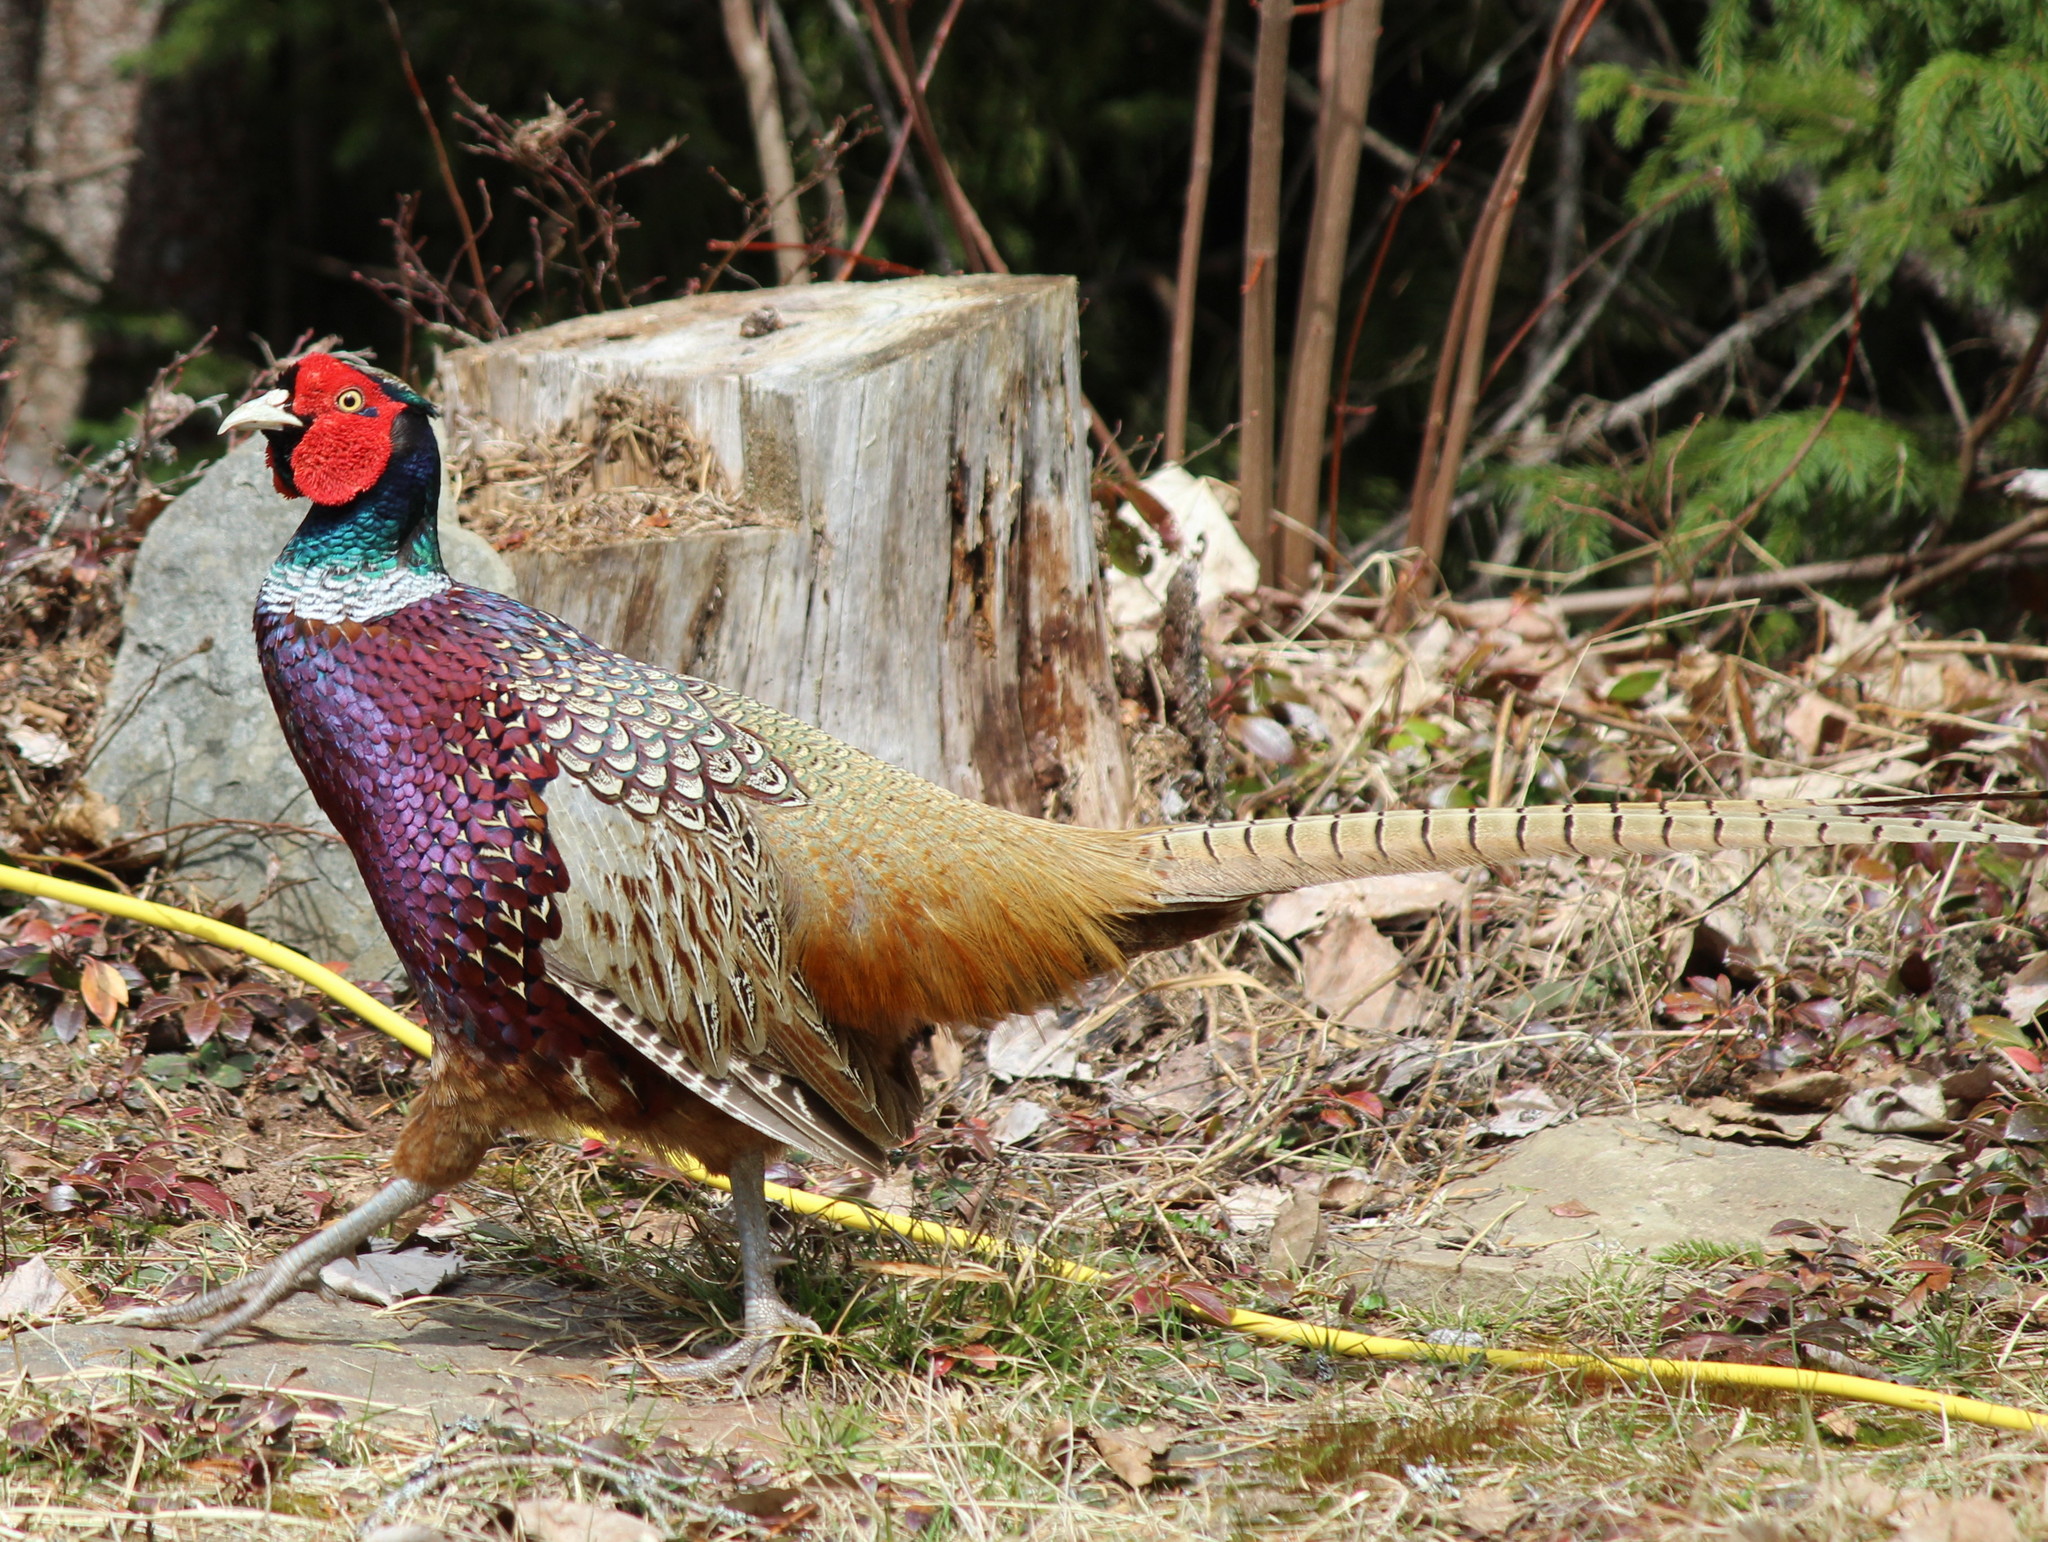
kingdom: Animalia
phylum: Chordata
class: Aves
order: Galliformes
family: Phasianidae
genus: Phasianus
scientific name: Phasianus colchicus
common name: Common pheasant
